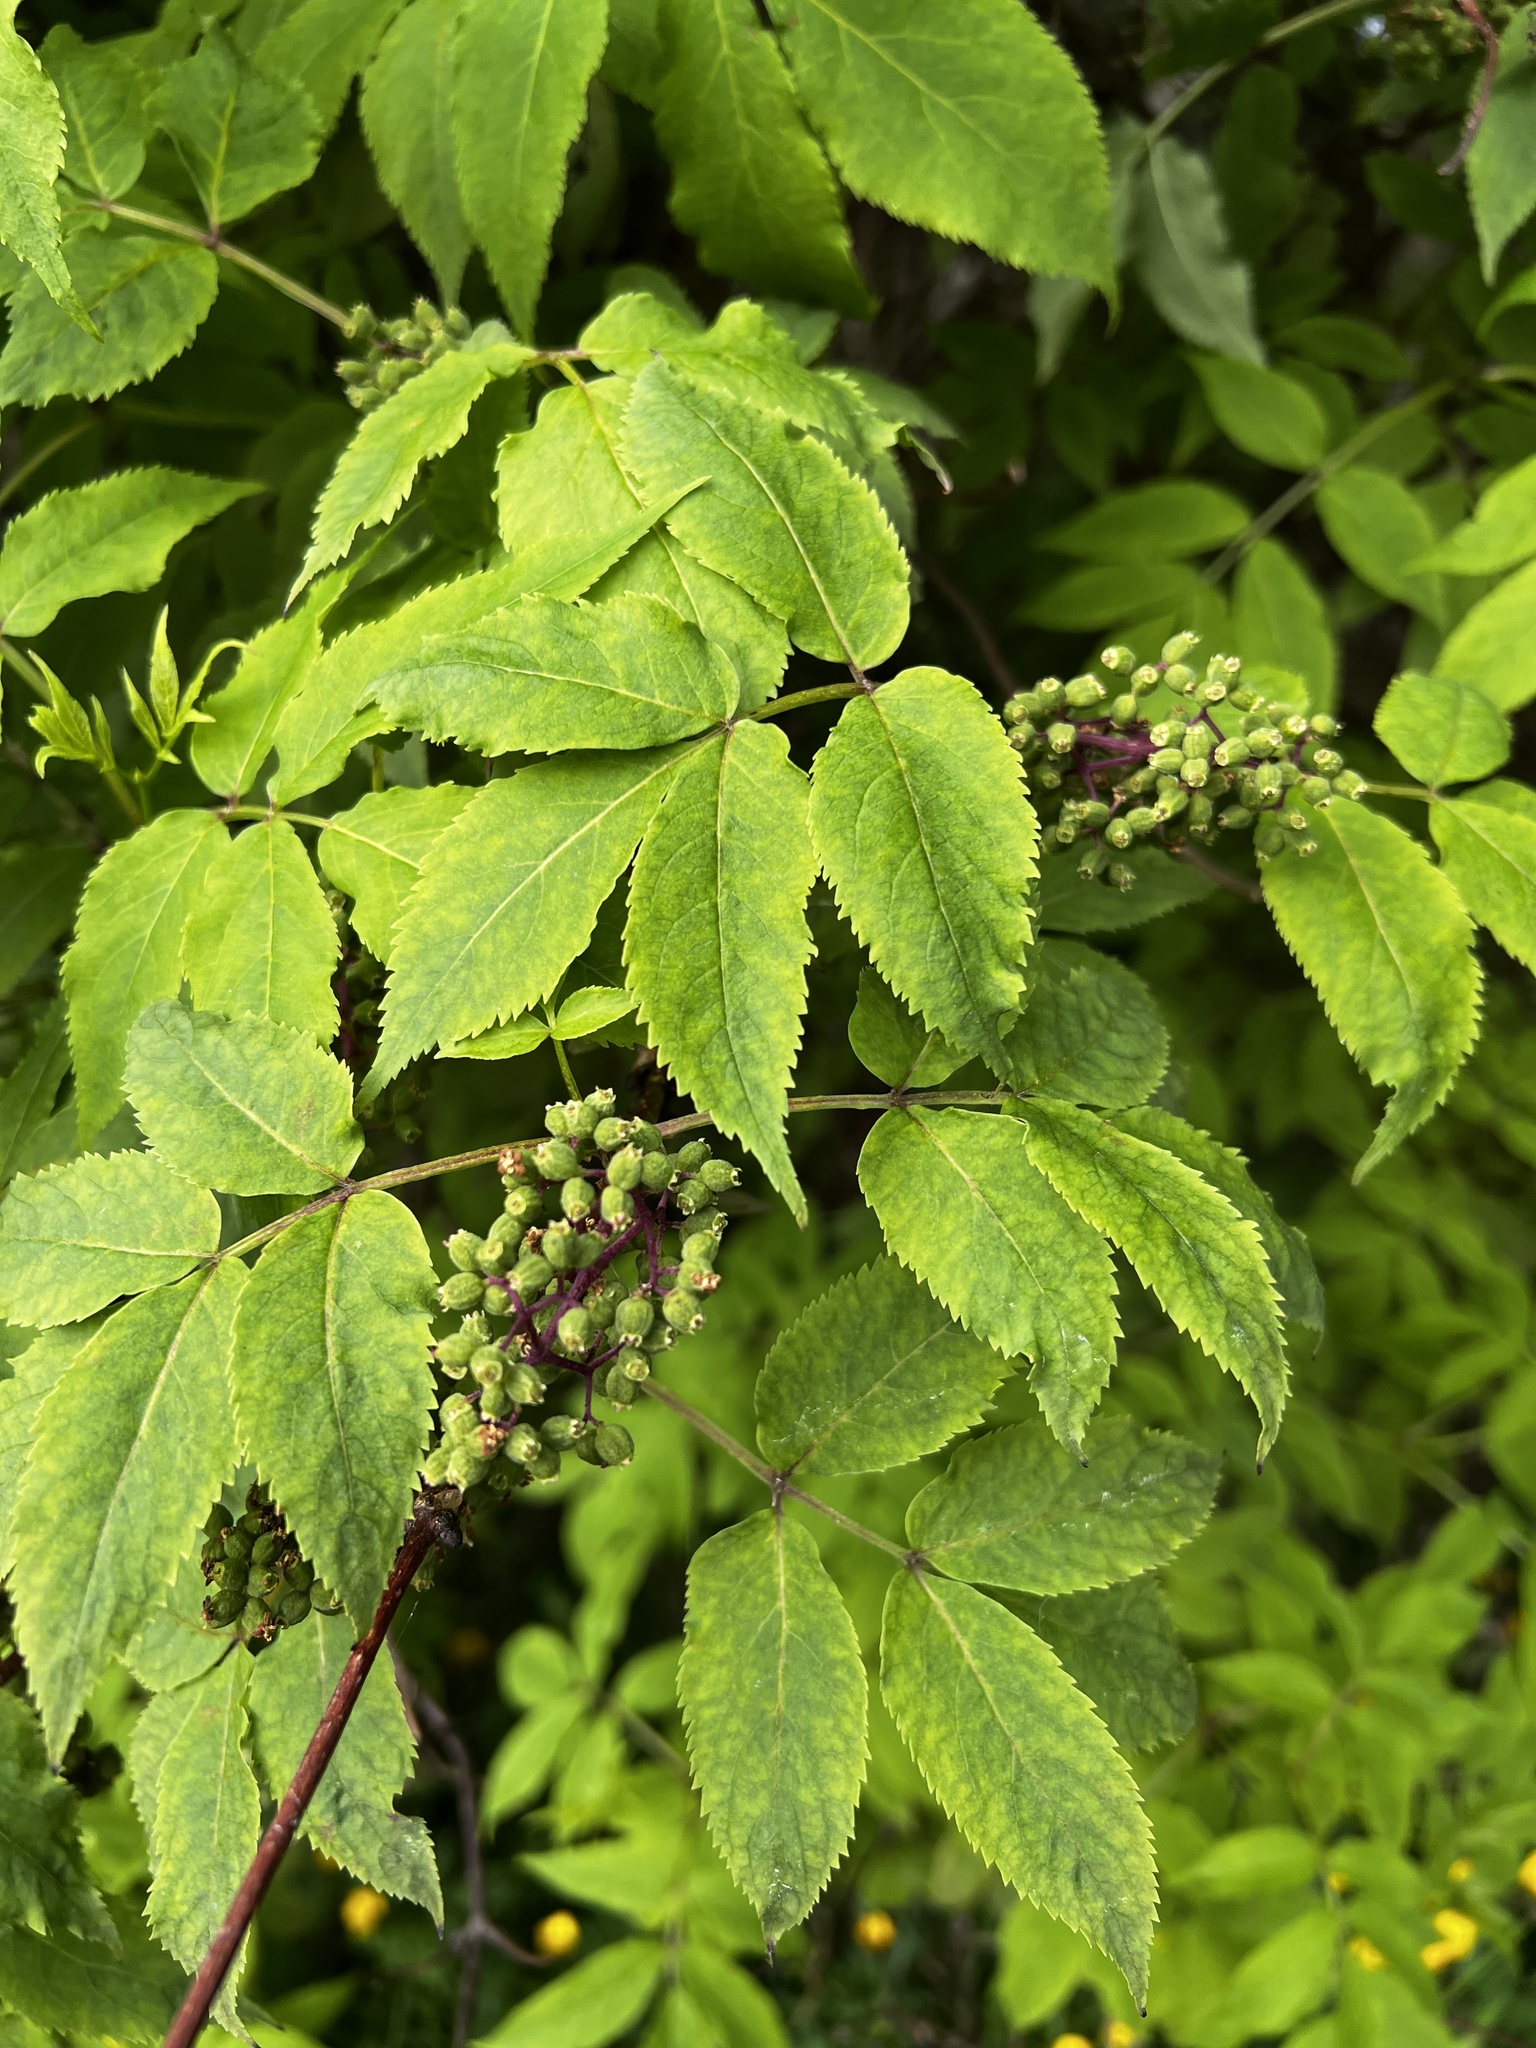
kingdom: Plantae
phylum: Tracheophyta
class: Magnoliopsida
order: Dipsacales
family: Viburnaceae
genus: Sambucus
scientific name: Sambucus racemosa
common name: Red-berried elder
